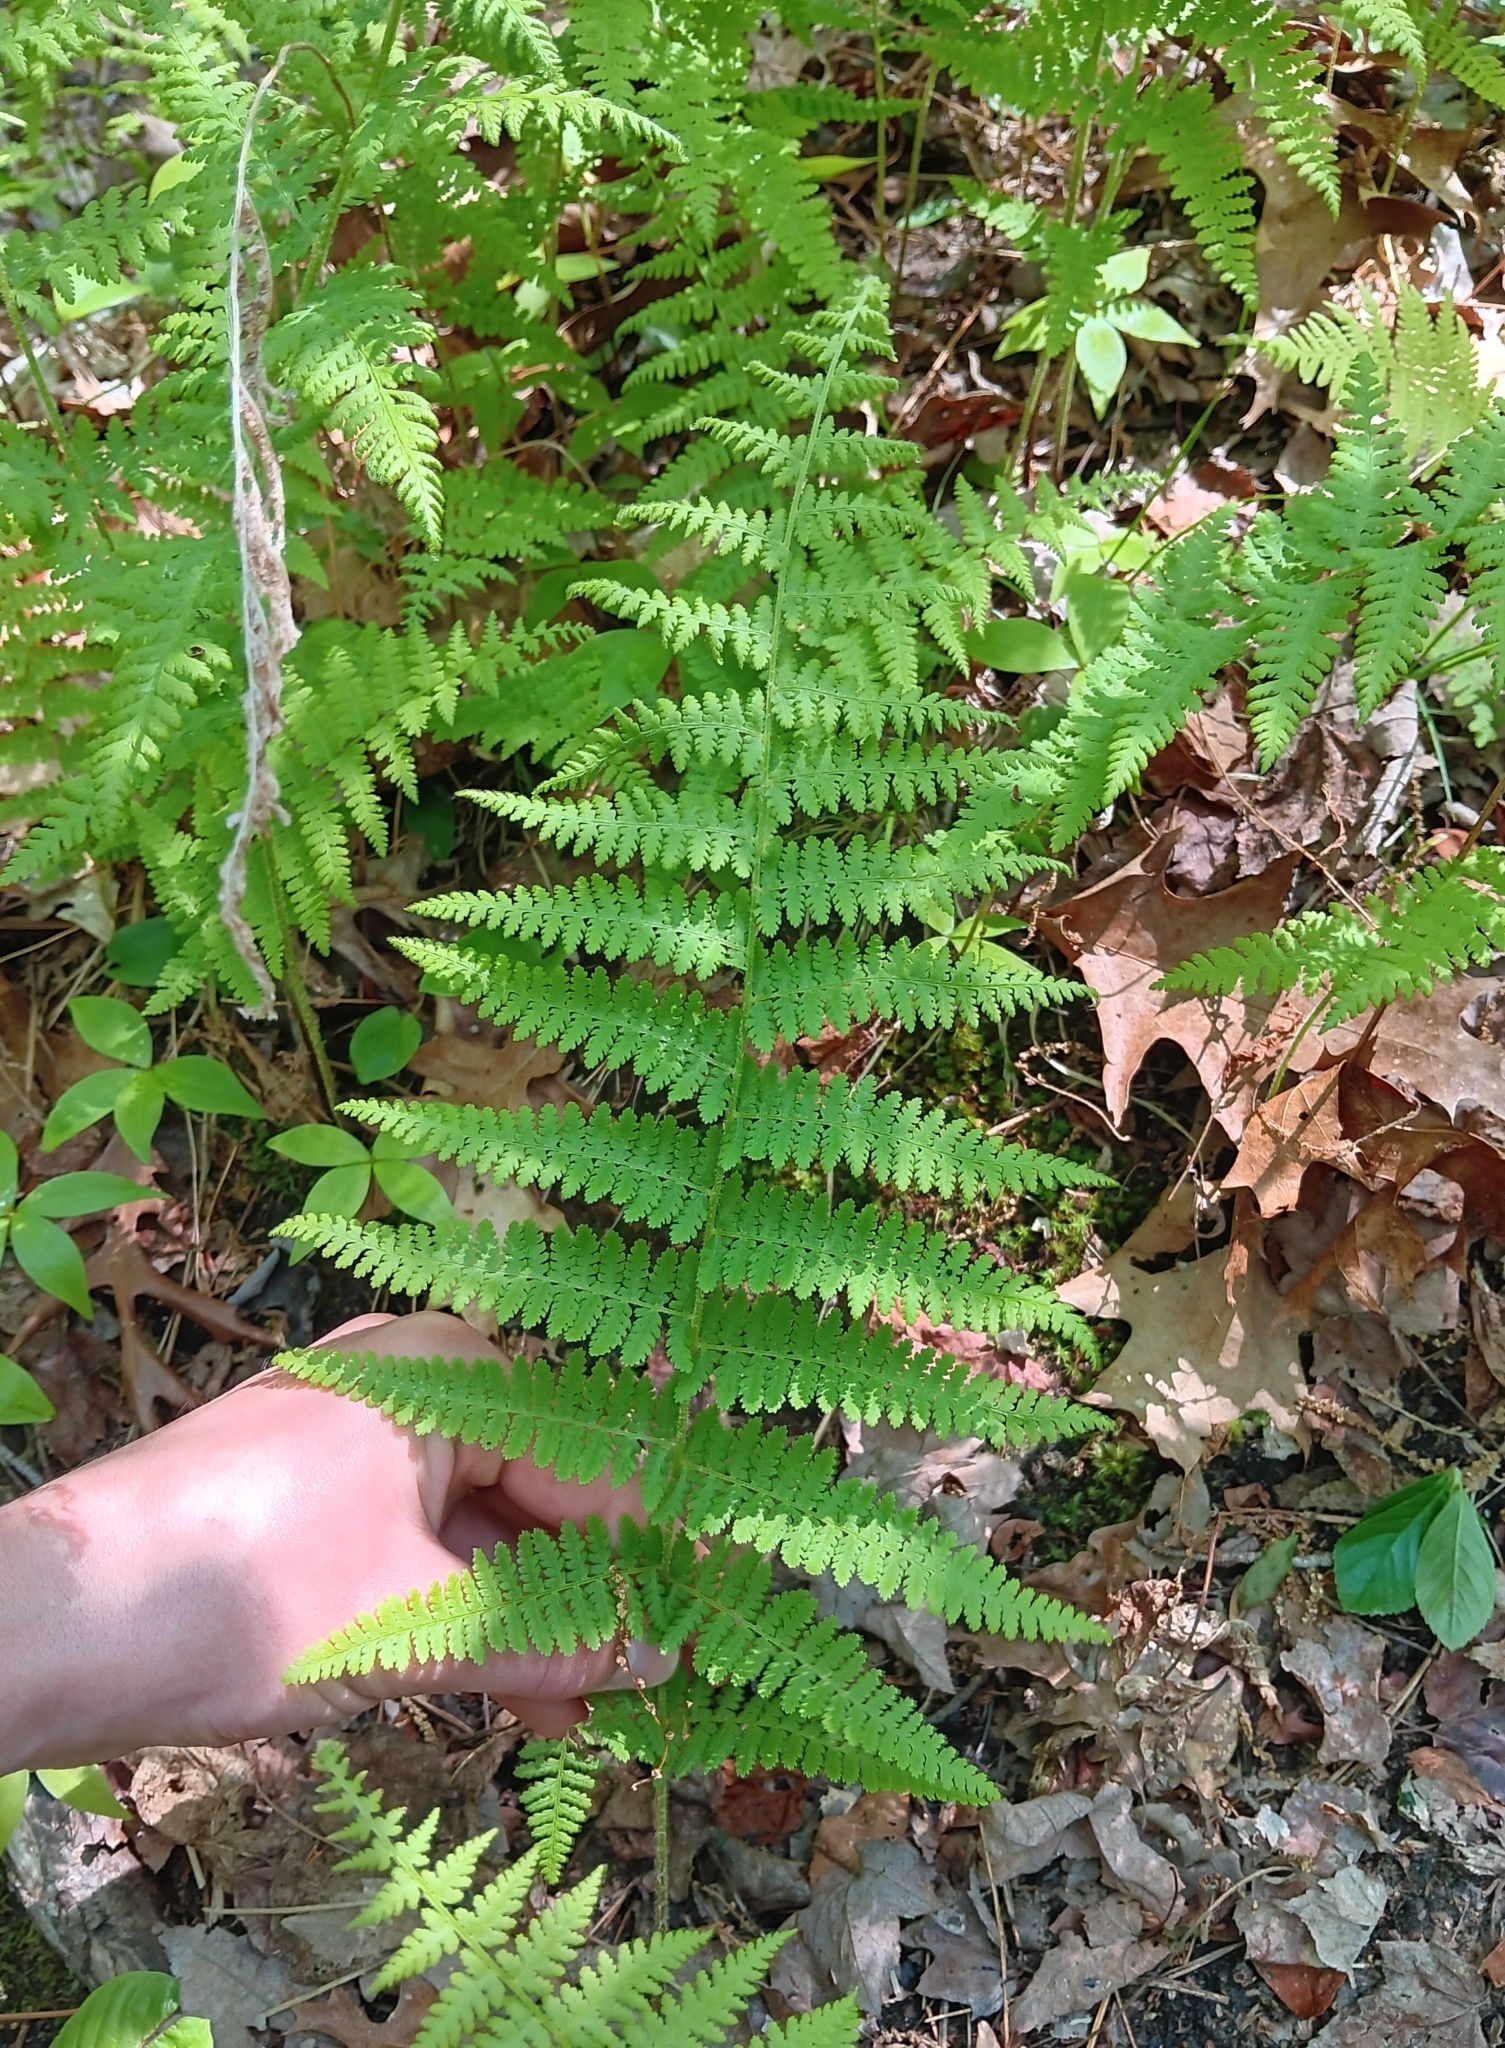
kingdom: Plantae
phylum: Tracheophyta
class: Polypodiopsida
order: Polypodiales
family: Dennstaedtiaceae
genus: Sitobolium
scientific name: Sitobolium punctilobum
